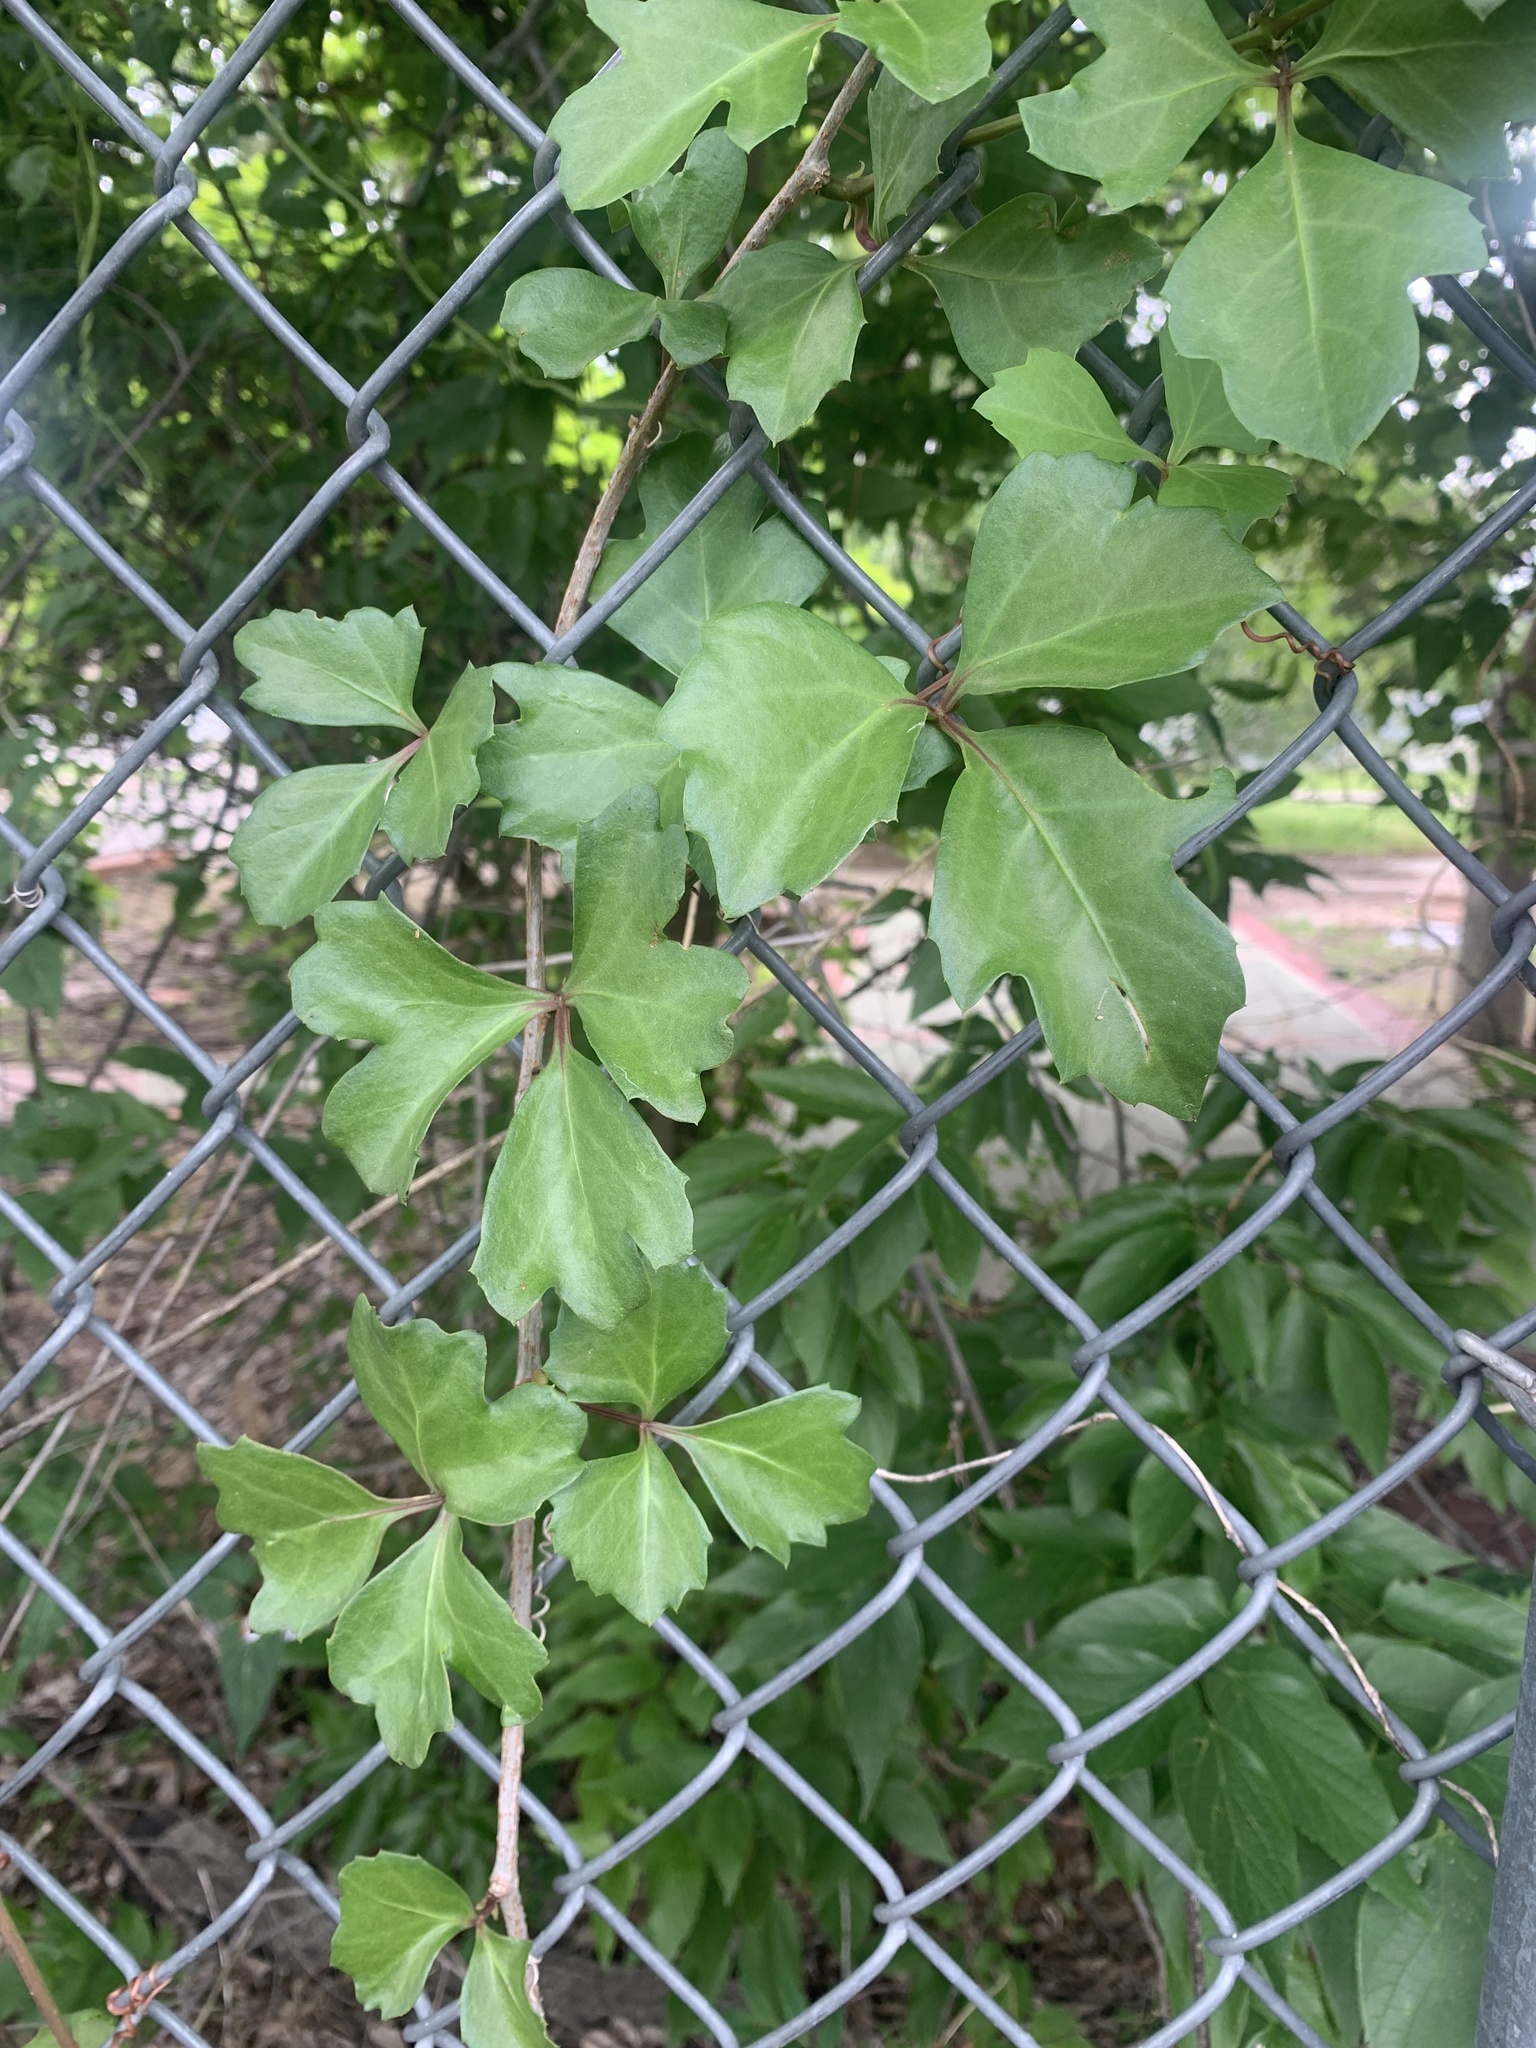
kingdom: Plantae
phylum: Tracheophyta
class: Magnoliopsida
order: Vitales
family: Vitaceae
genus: Cissus
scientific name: Cissus trifoliata
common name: Vine-sorrel
